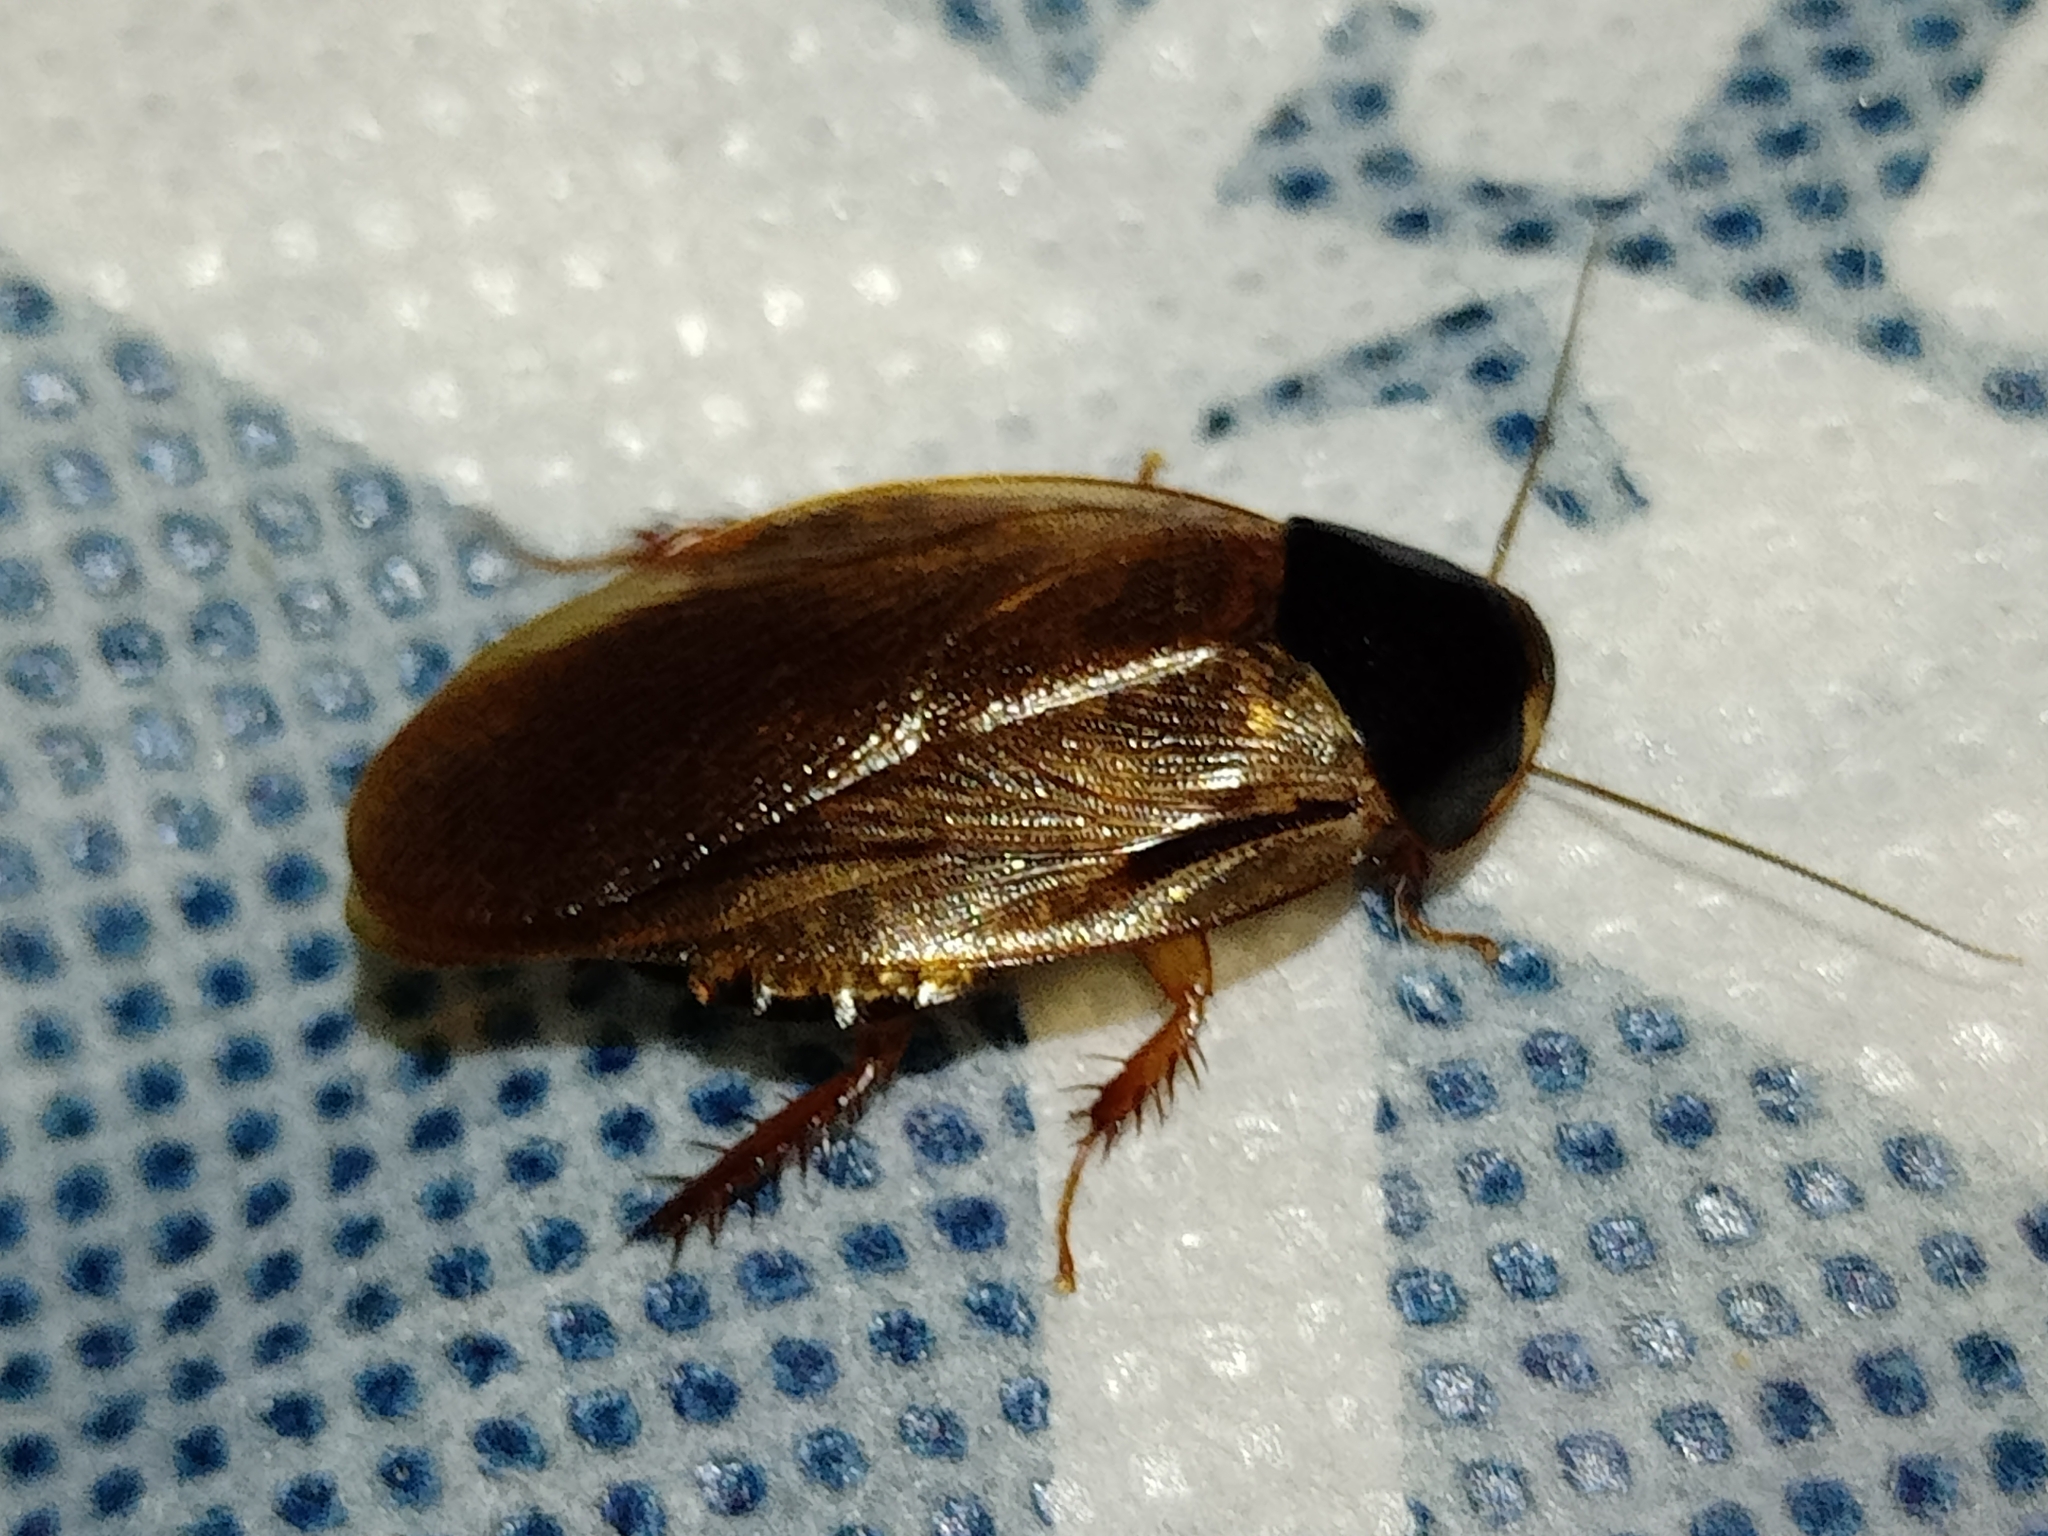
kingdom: Animalia
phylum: Arthropoda
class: Insecta
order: Blattodea
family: Blaberidae
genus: Pycnoscelus
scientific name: Pycnoscelus surinamensis
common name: Surinam cockroach
